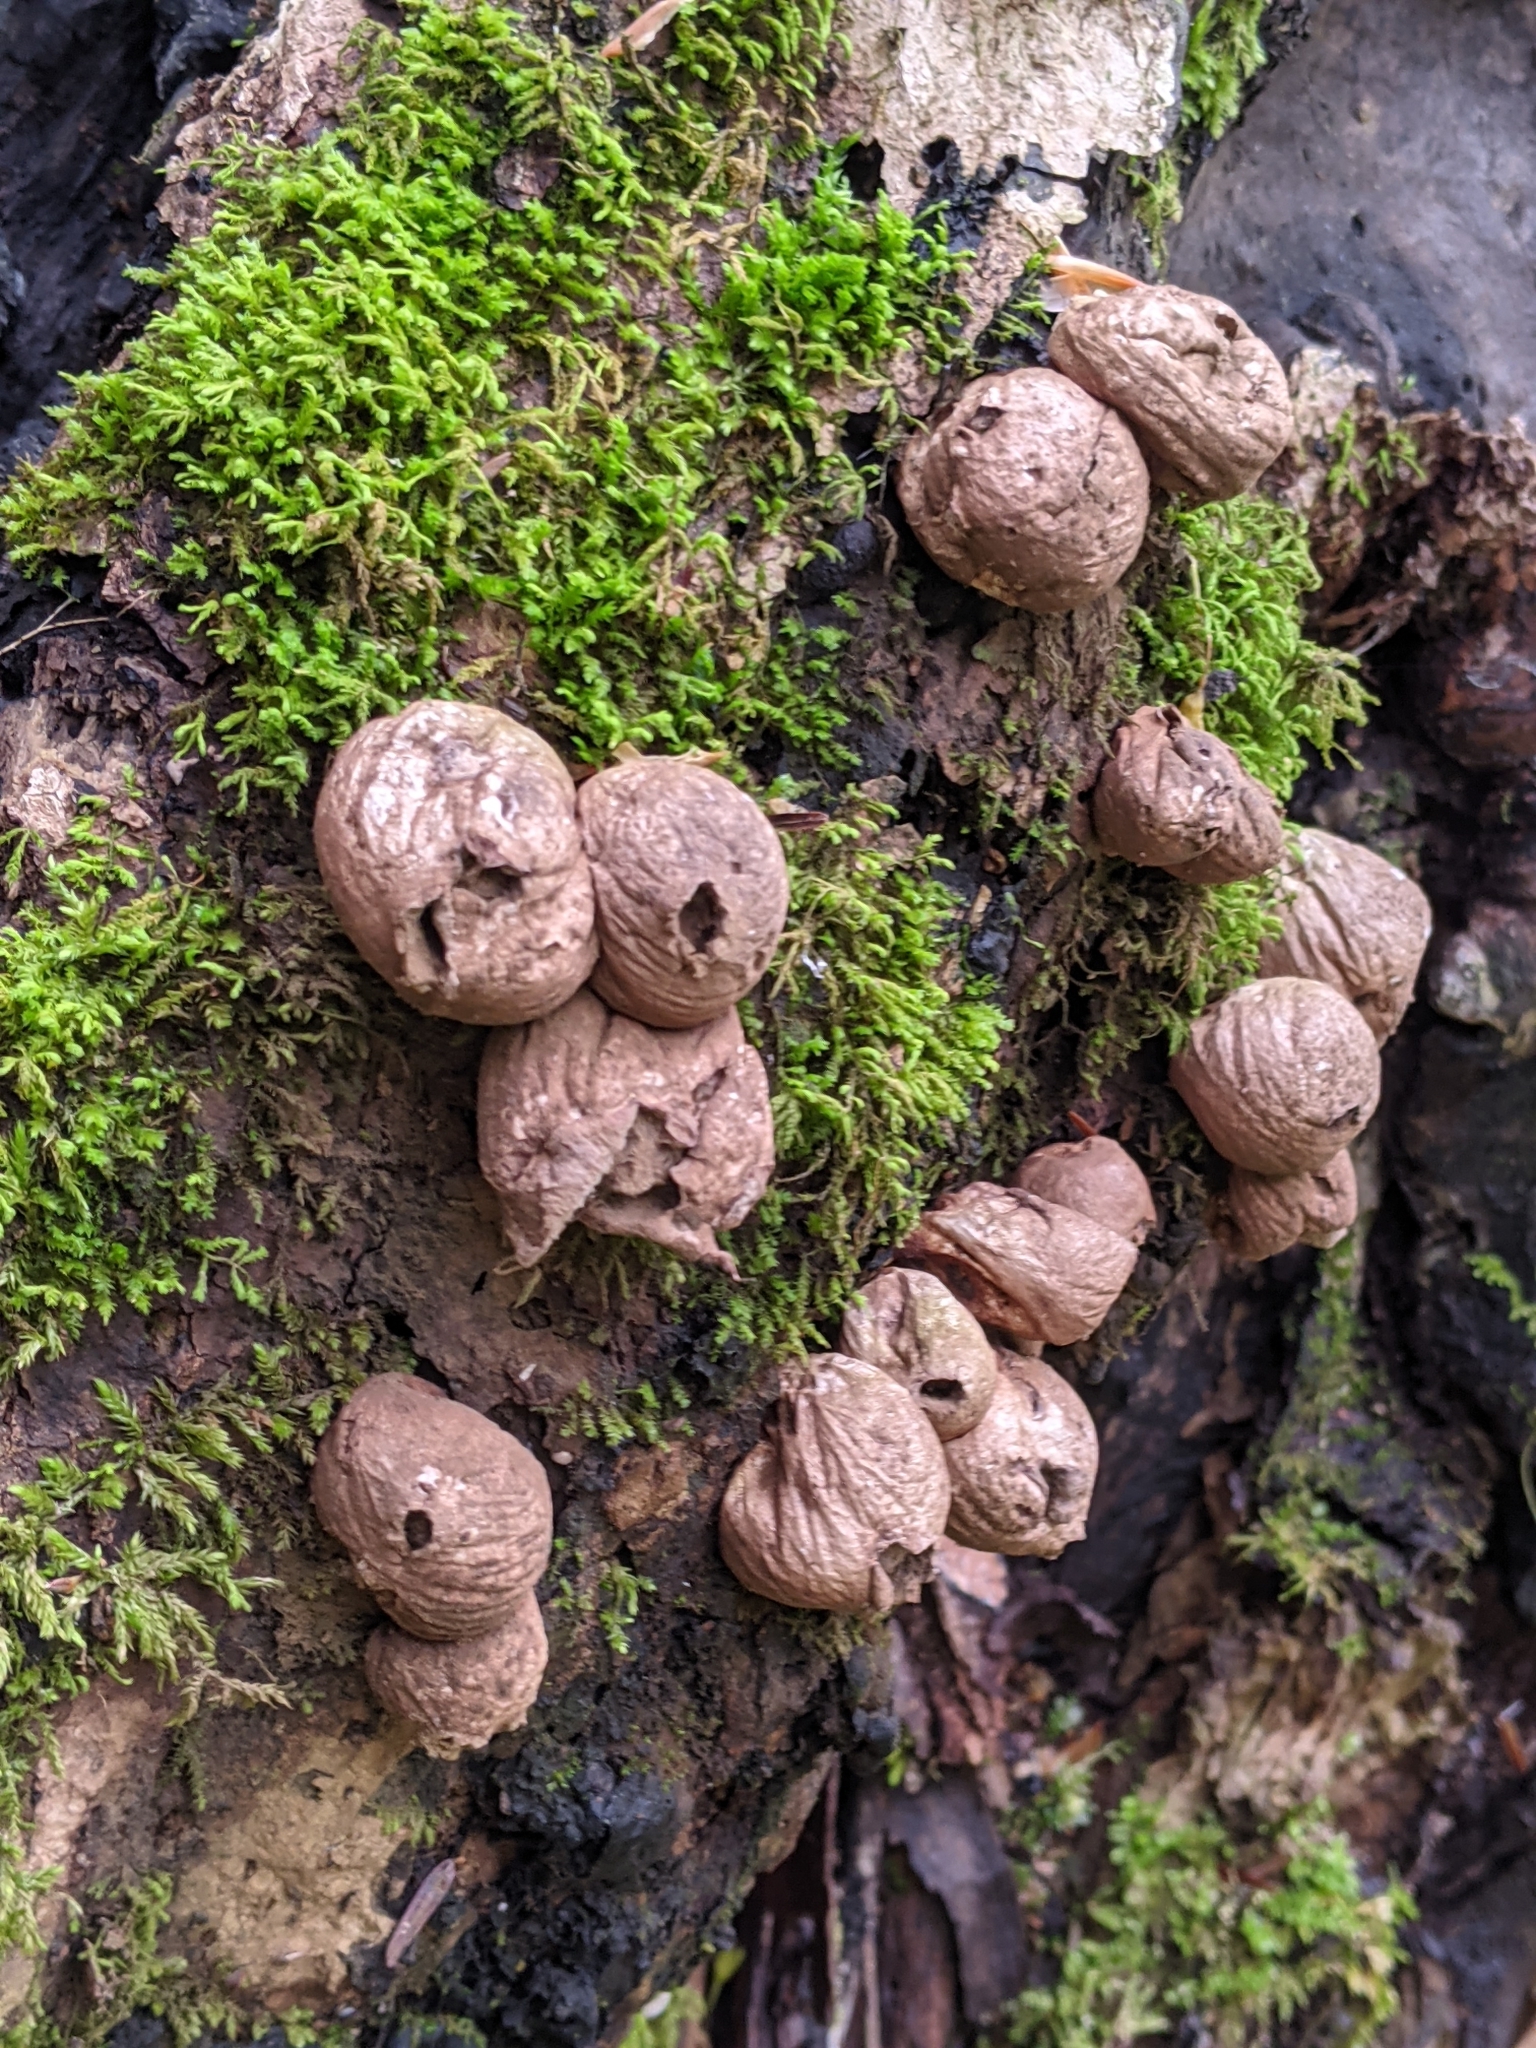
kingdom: Fungi
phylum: Basidiomycota
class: Agaricomycetes
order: Agaricales
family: Lycoperdaceae
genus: Apioperdon
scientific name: Apioperdon pyriforme
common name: Pear-shaped puffball
